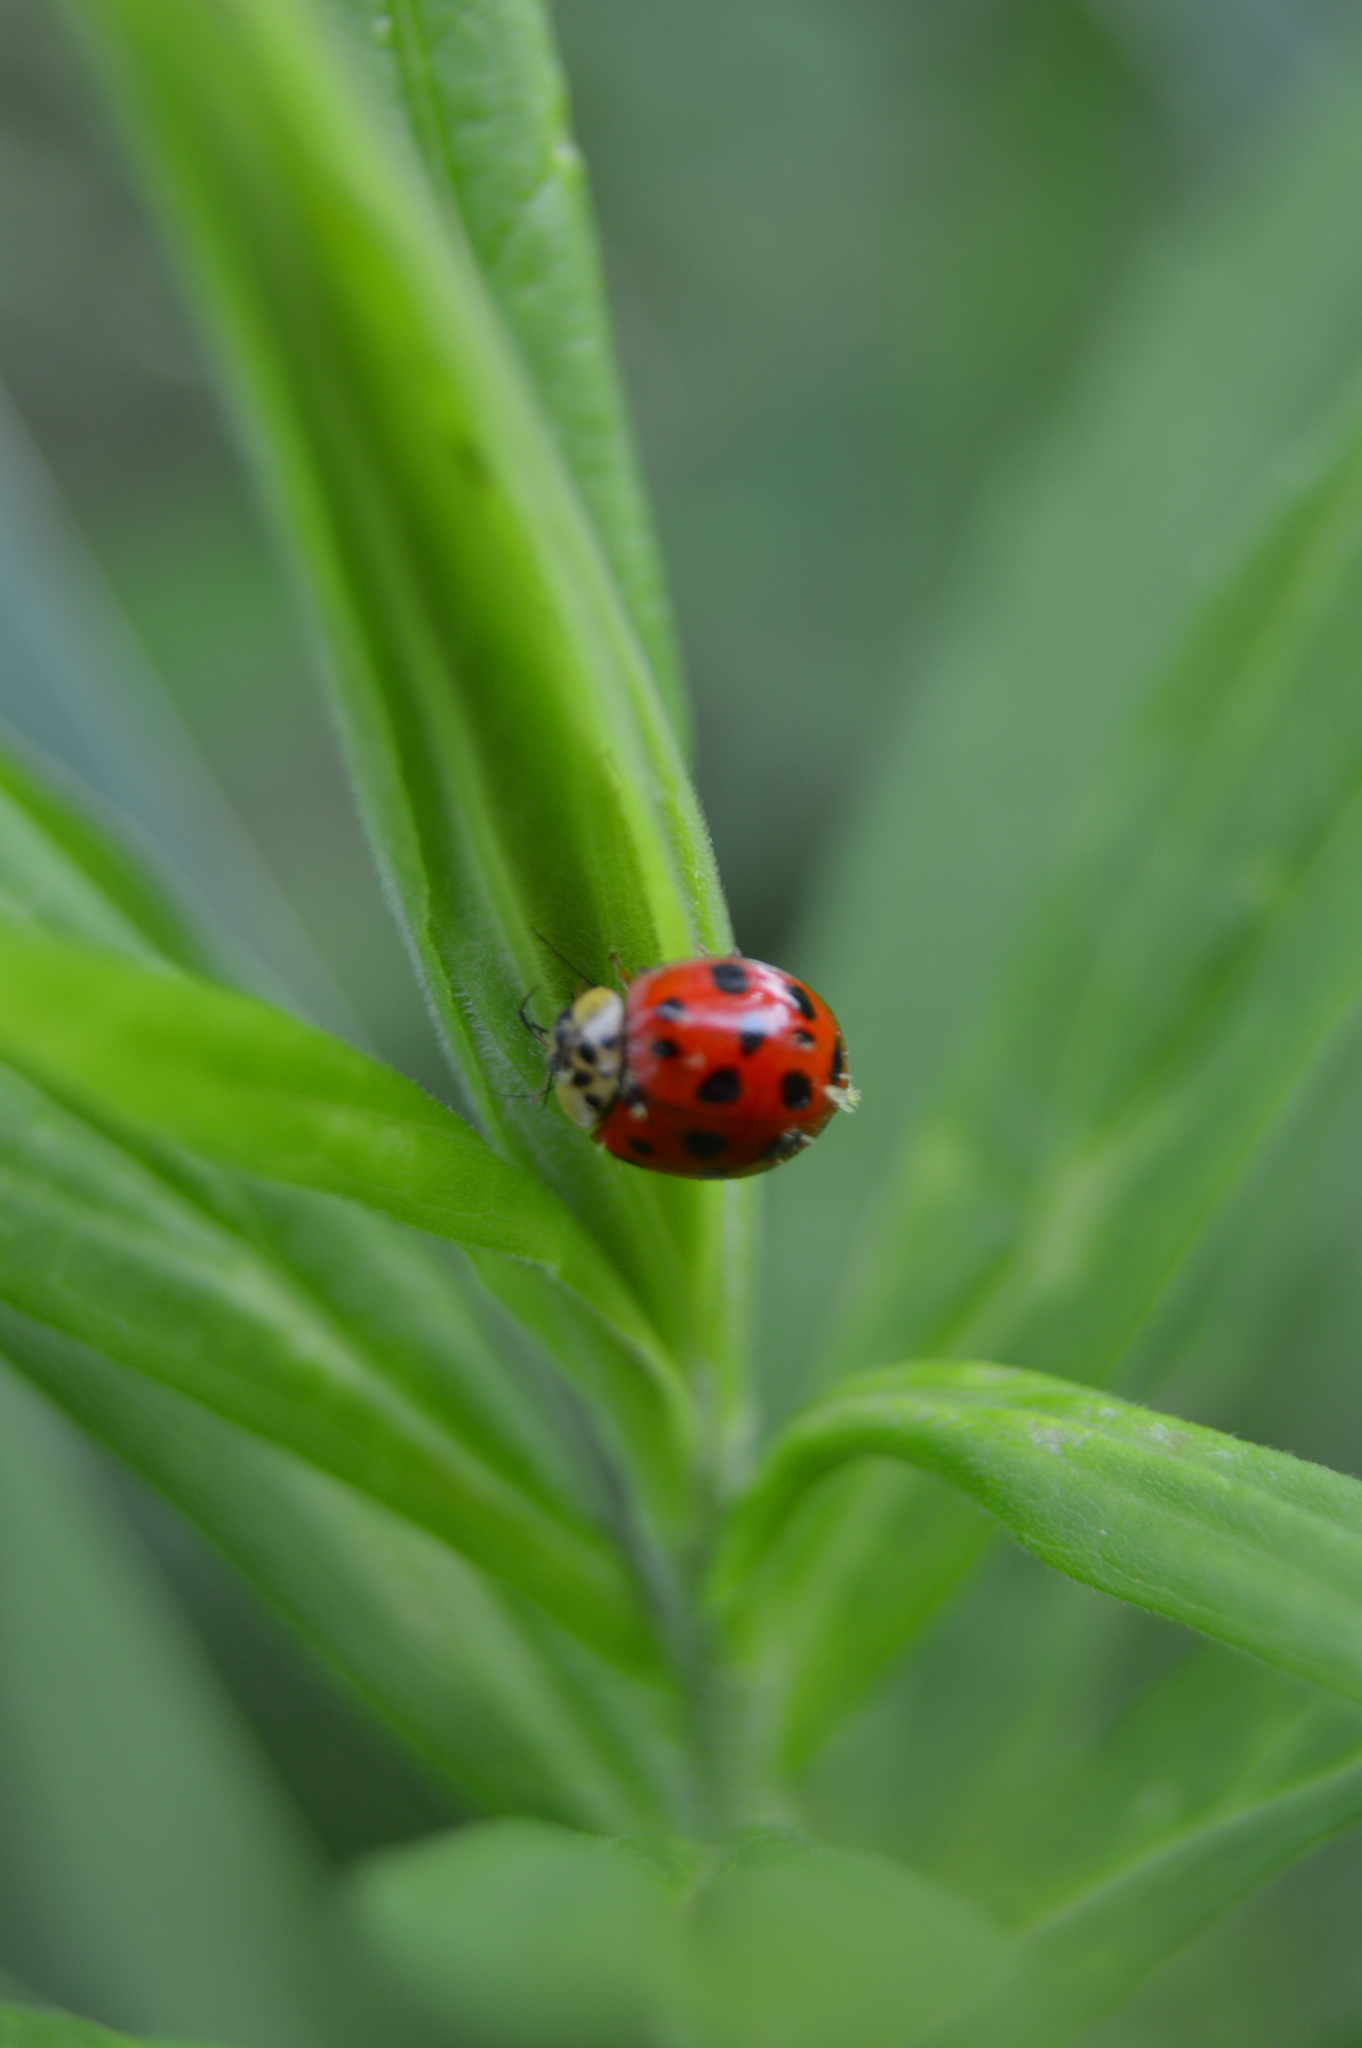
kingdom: Animalia
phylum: Arthropoda
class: Insecta
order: Coleoptera
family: Coccinellidae
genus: Harmonia
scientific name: Harmonia axyridis
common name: Harlequin ladybird
